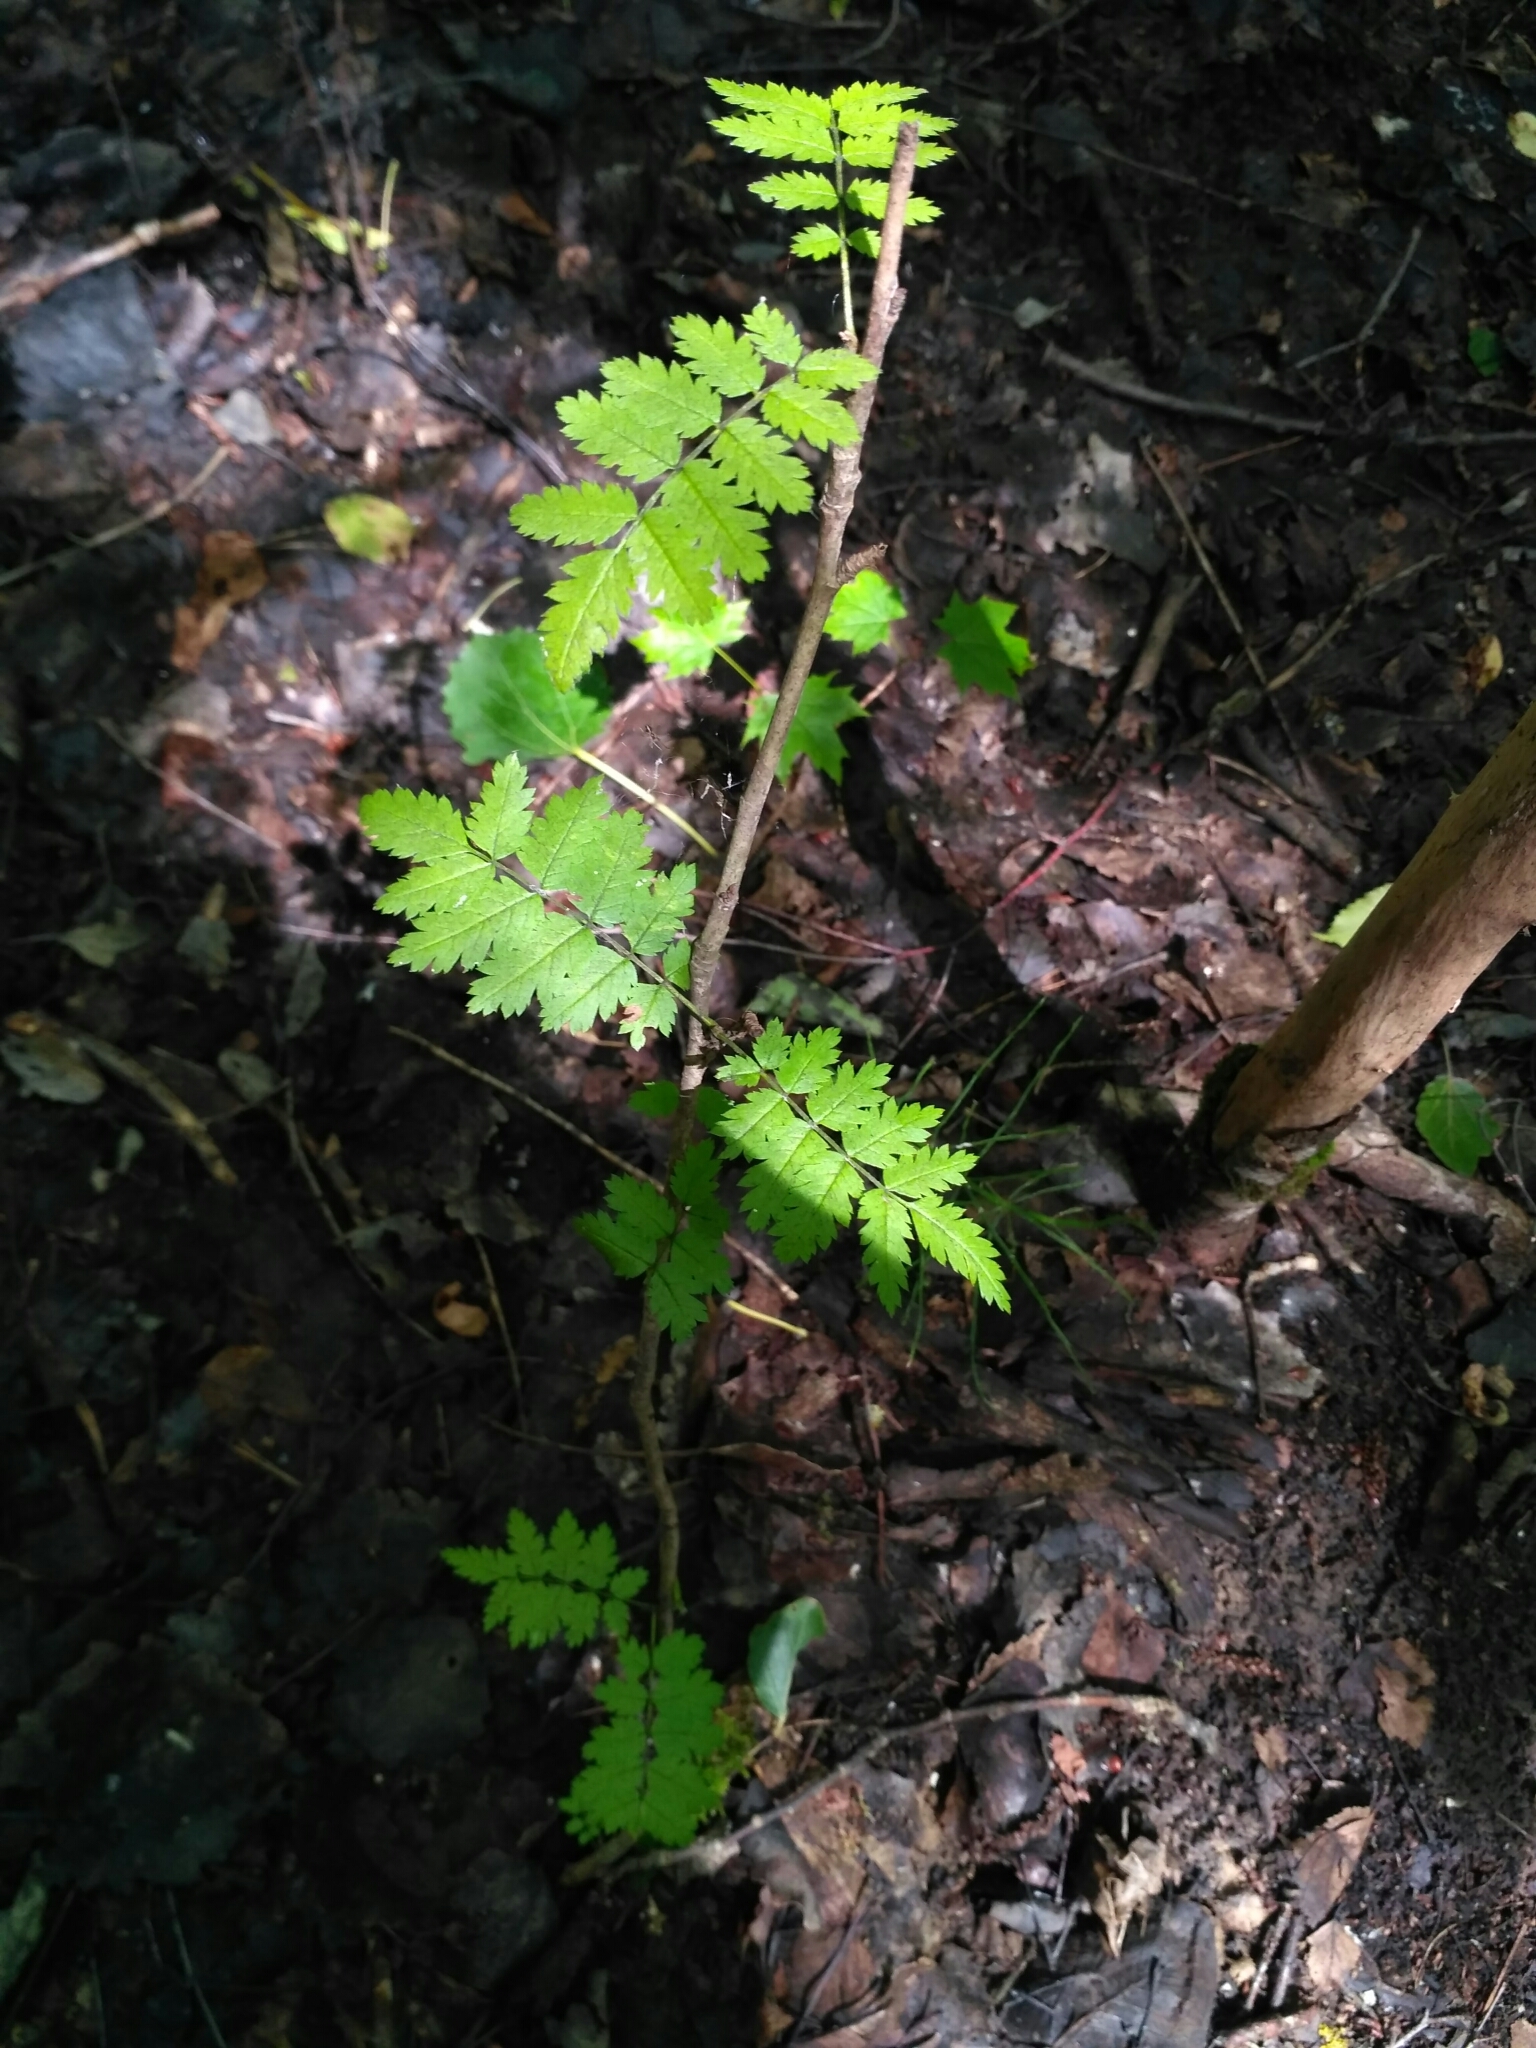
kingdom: Plantae
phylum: Tracheophyta
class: Magnoliopsida
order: Rosales
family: Rosaceae
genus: Sorbus
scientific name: Sorbus aucuparia
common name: Rowan
